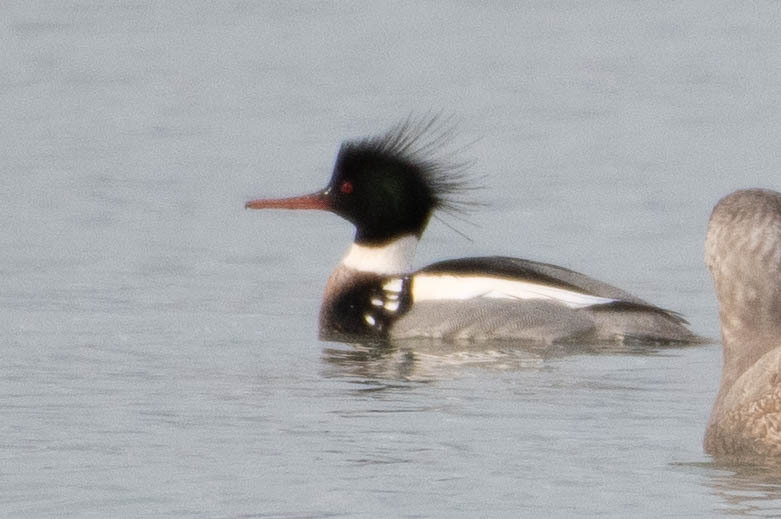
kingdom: Animalia
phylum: Chordata
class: Aves
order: Anseriformes
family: Anatidae
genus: Mergus
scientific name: Mergus serrator
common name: Red-breasted merganser
